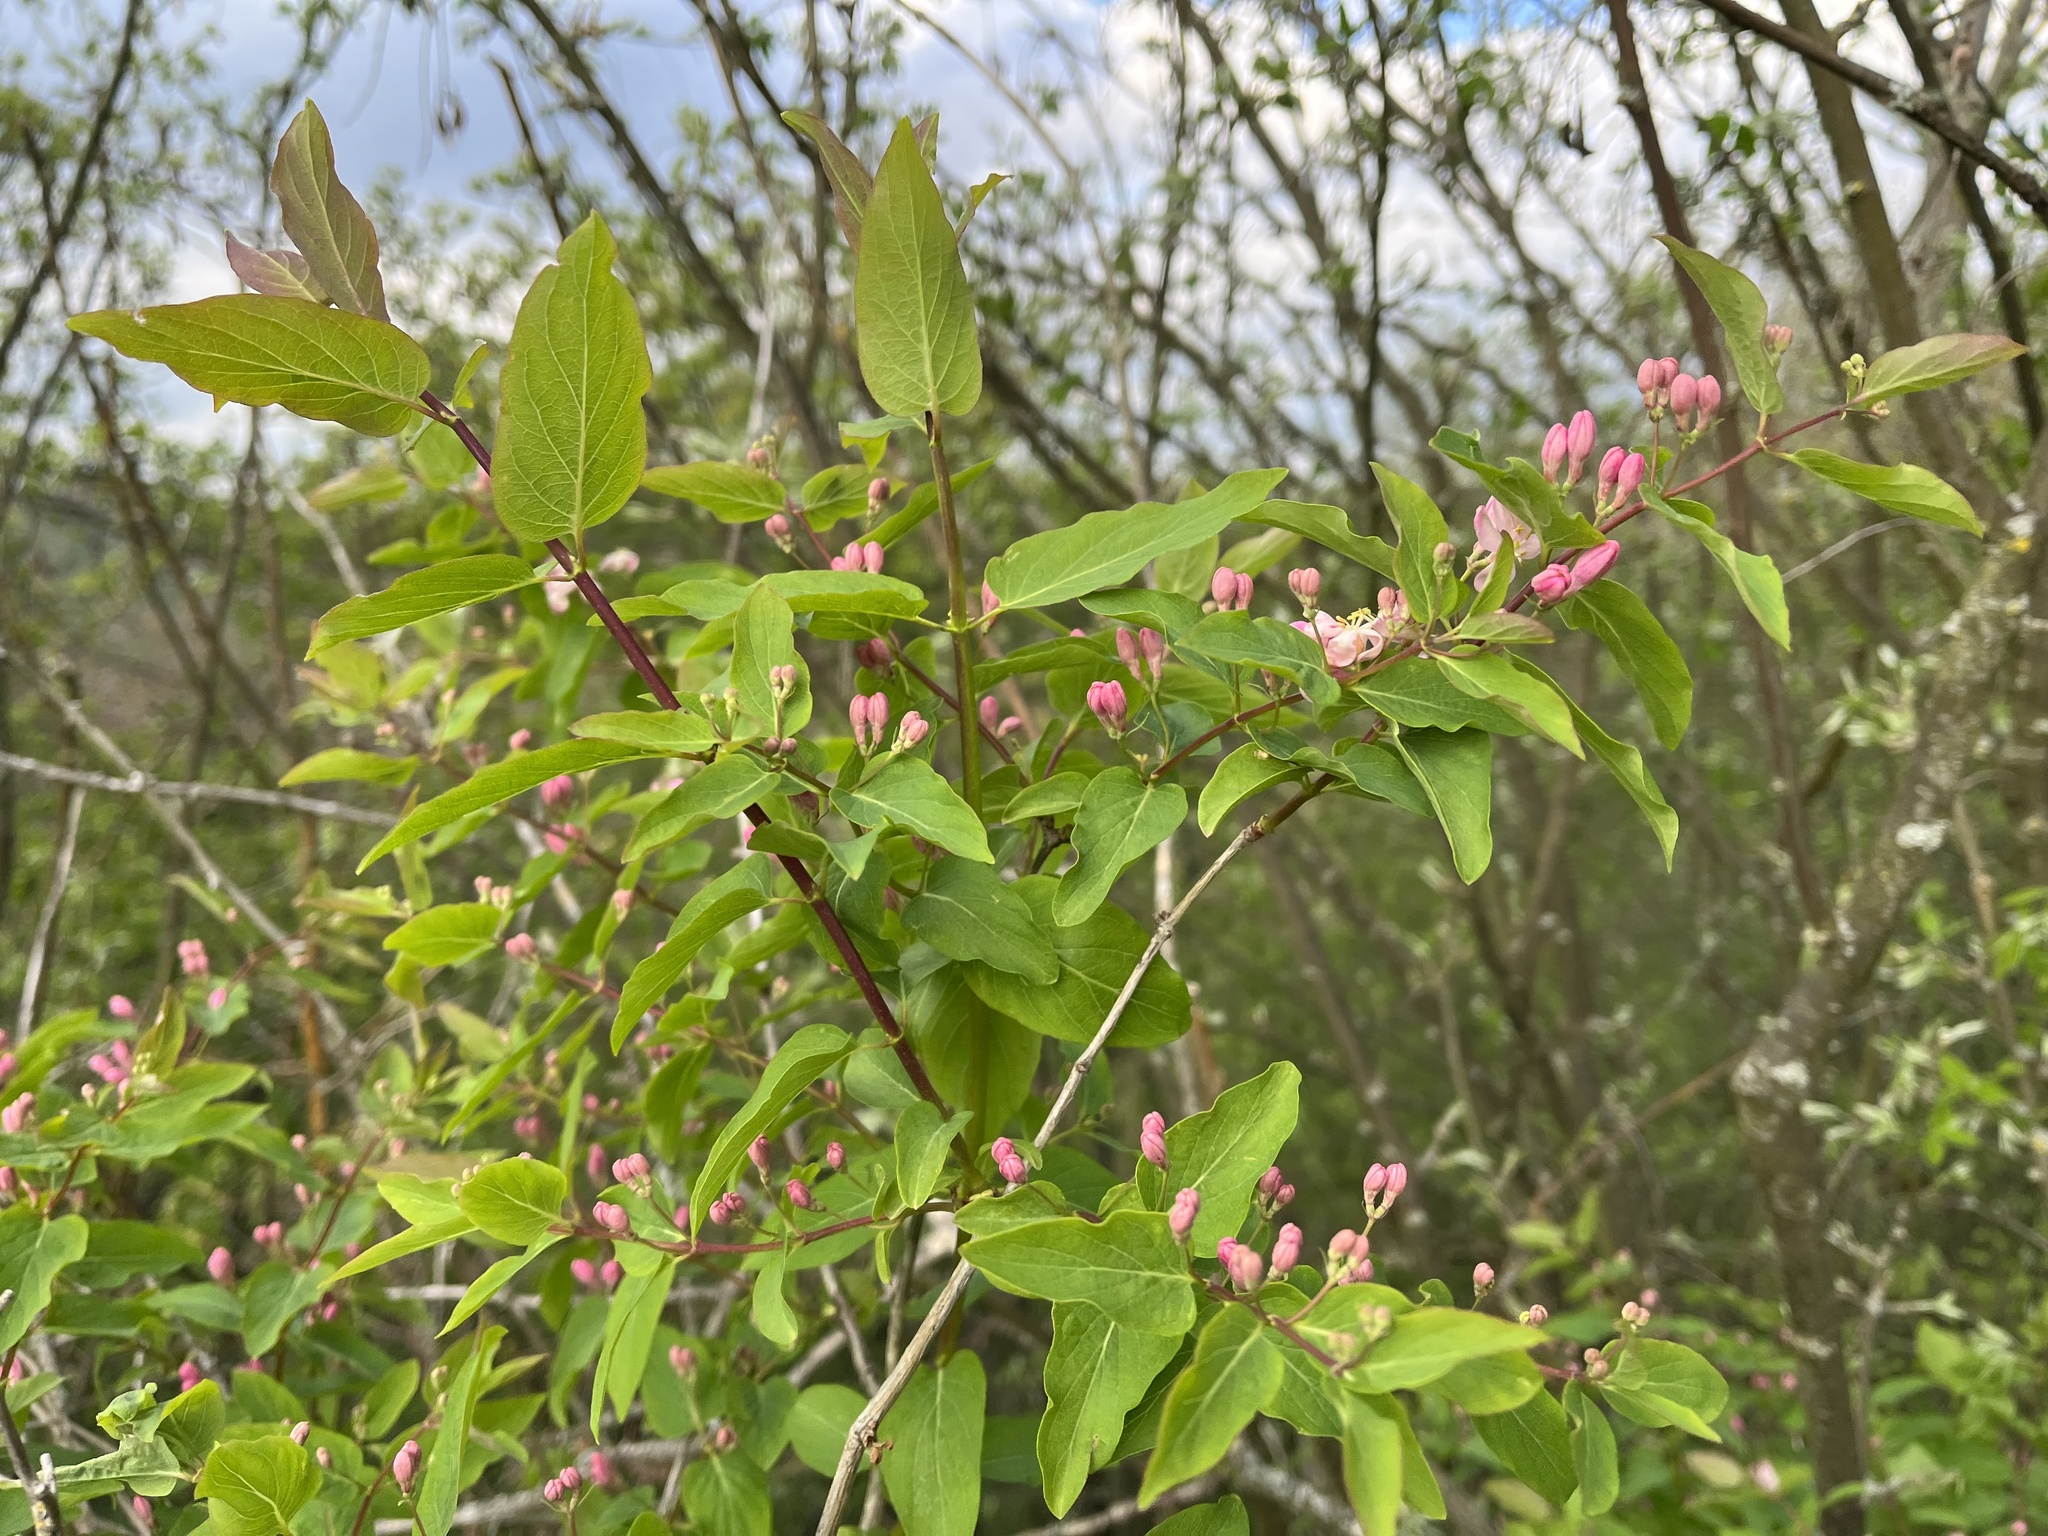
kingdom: Plantae
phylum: Tracheophyta
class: Magnoliopsida
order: Dipsacales
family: Caprifoliaceae
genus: Lonicera
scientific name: Lonicera tatarica
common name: Tatarian honeysuckle
